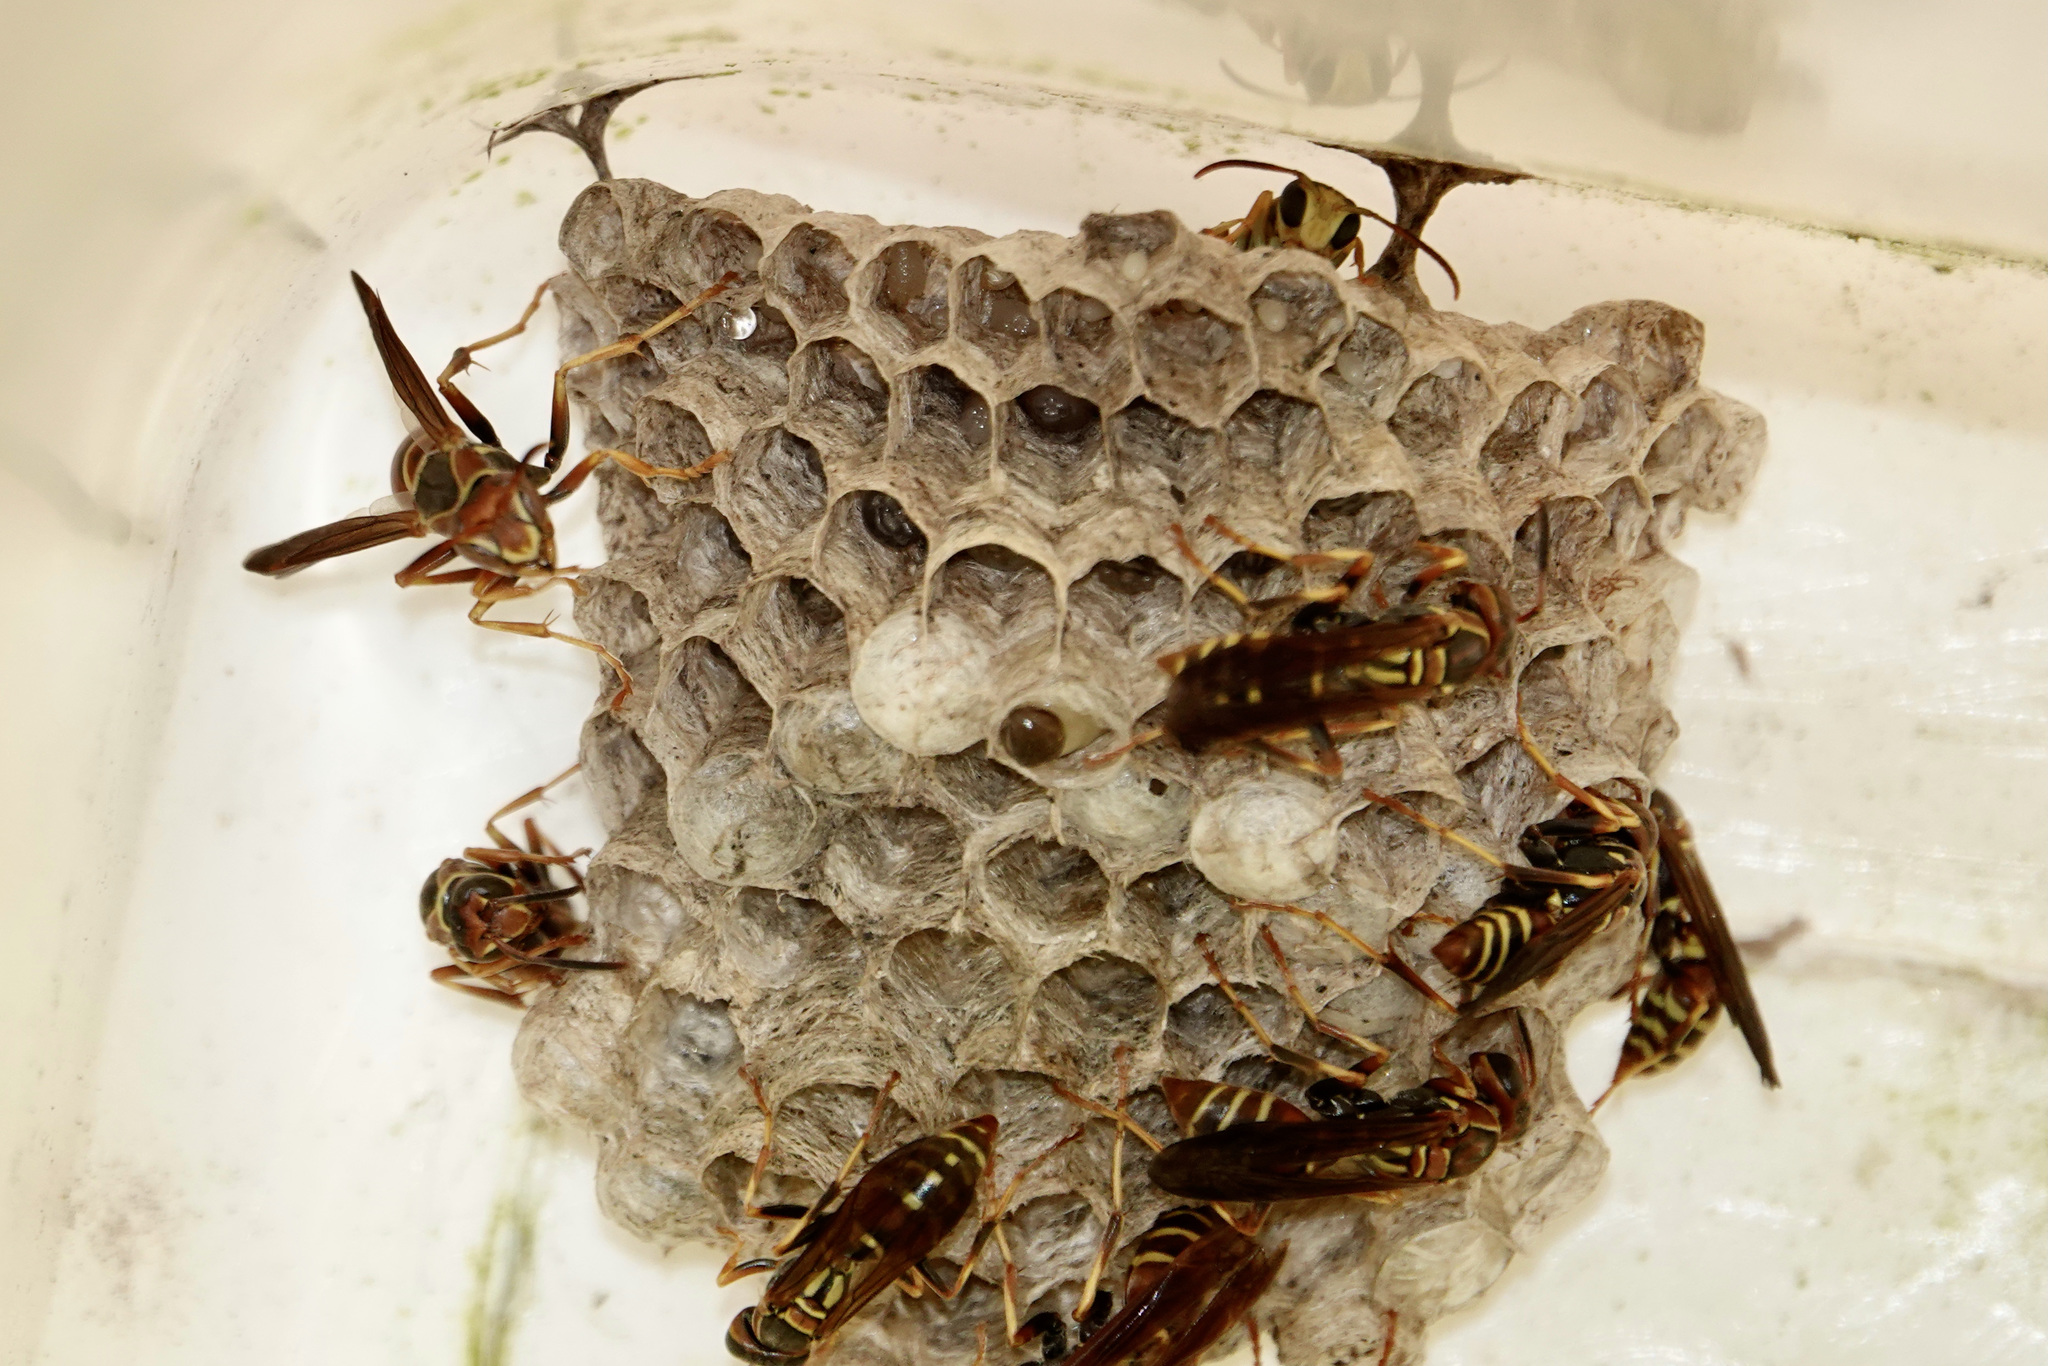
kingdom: Animalia
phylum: Arthropoda
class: Insecta
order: Hymenoptera
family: Eumenidae
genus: Polistes
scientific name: Polistes dorsalis
